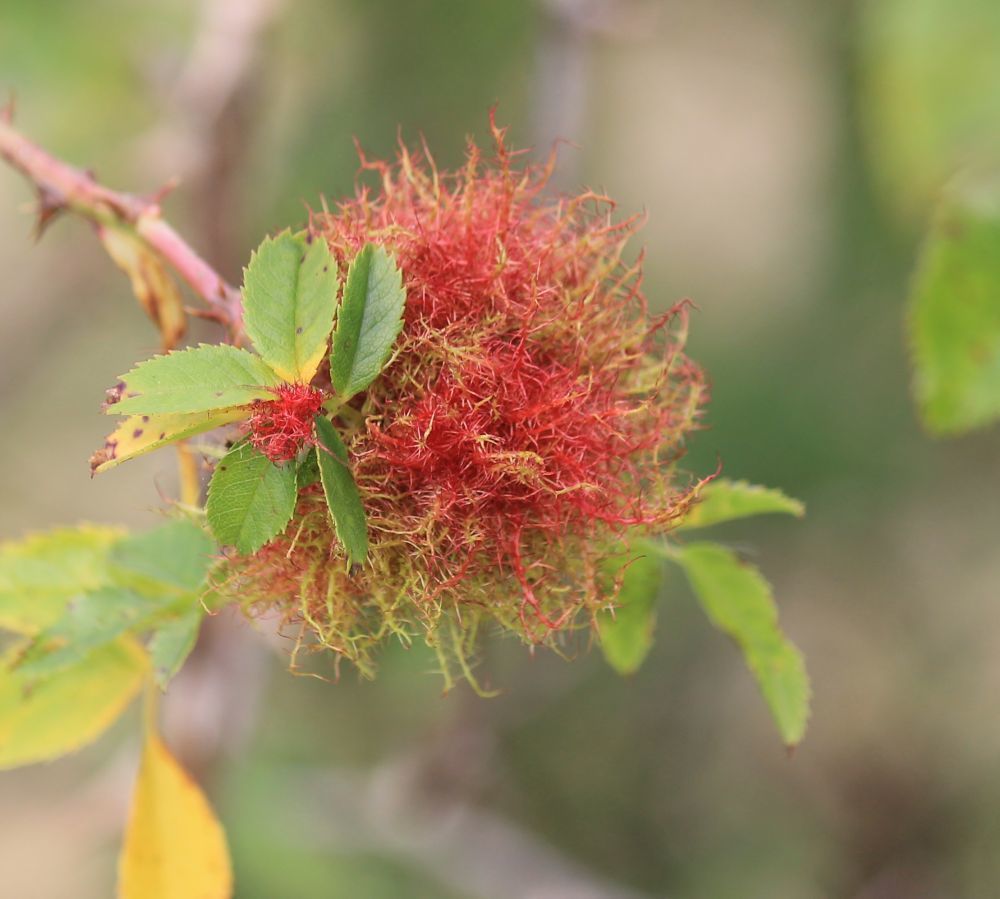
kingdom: Animalia
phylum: Arthropoda
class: Insecta
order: Hymenoptera
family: Cynipidae
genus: Diplolepis
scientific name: Diplolepis rosae
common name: Bedeguar gall
